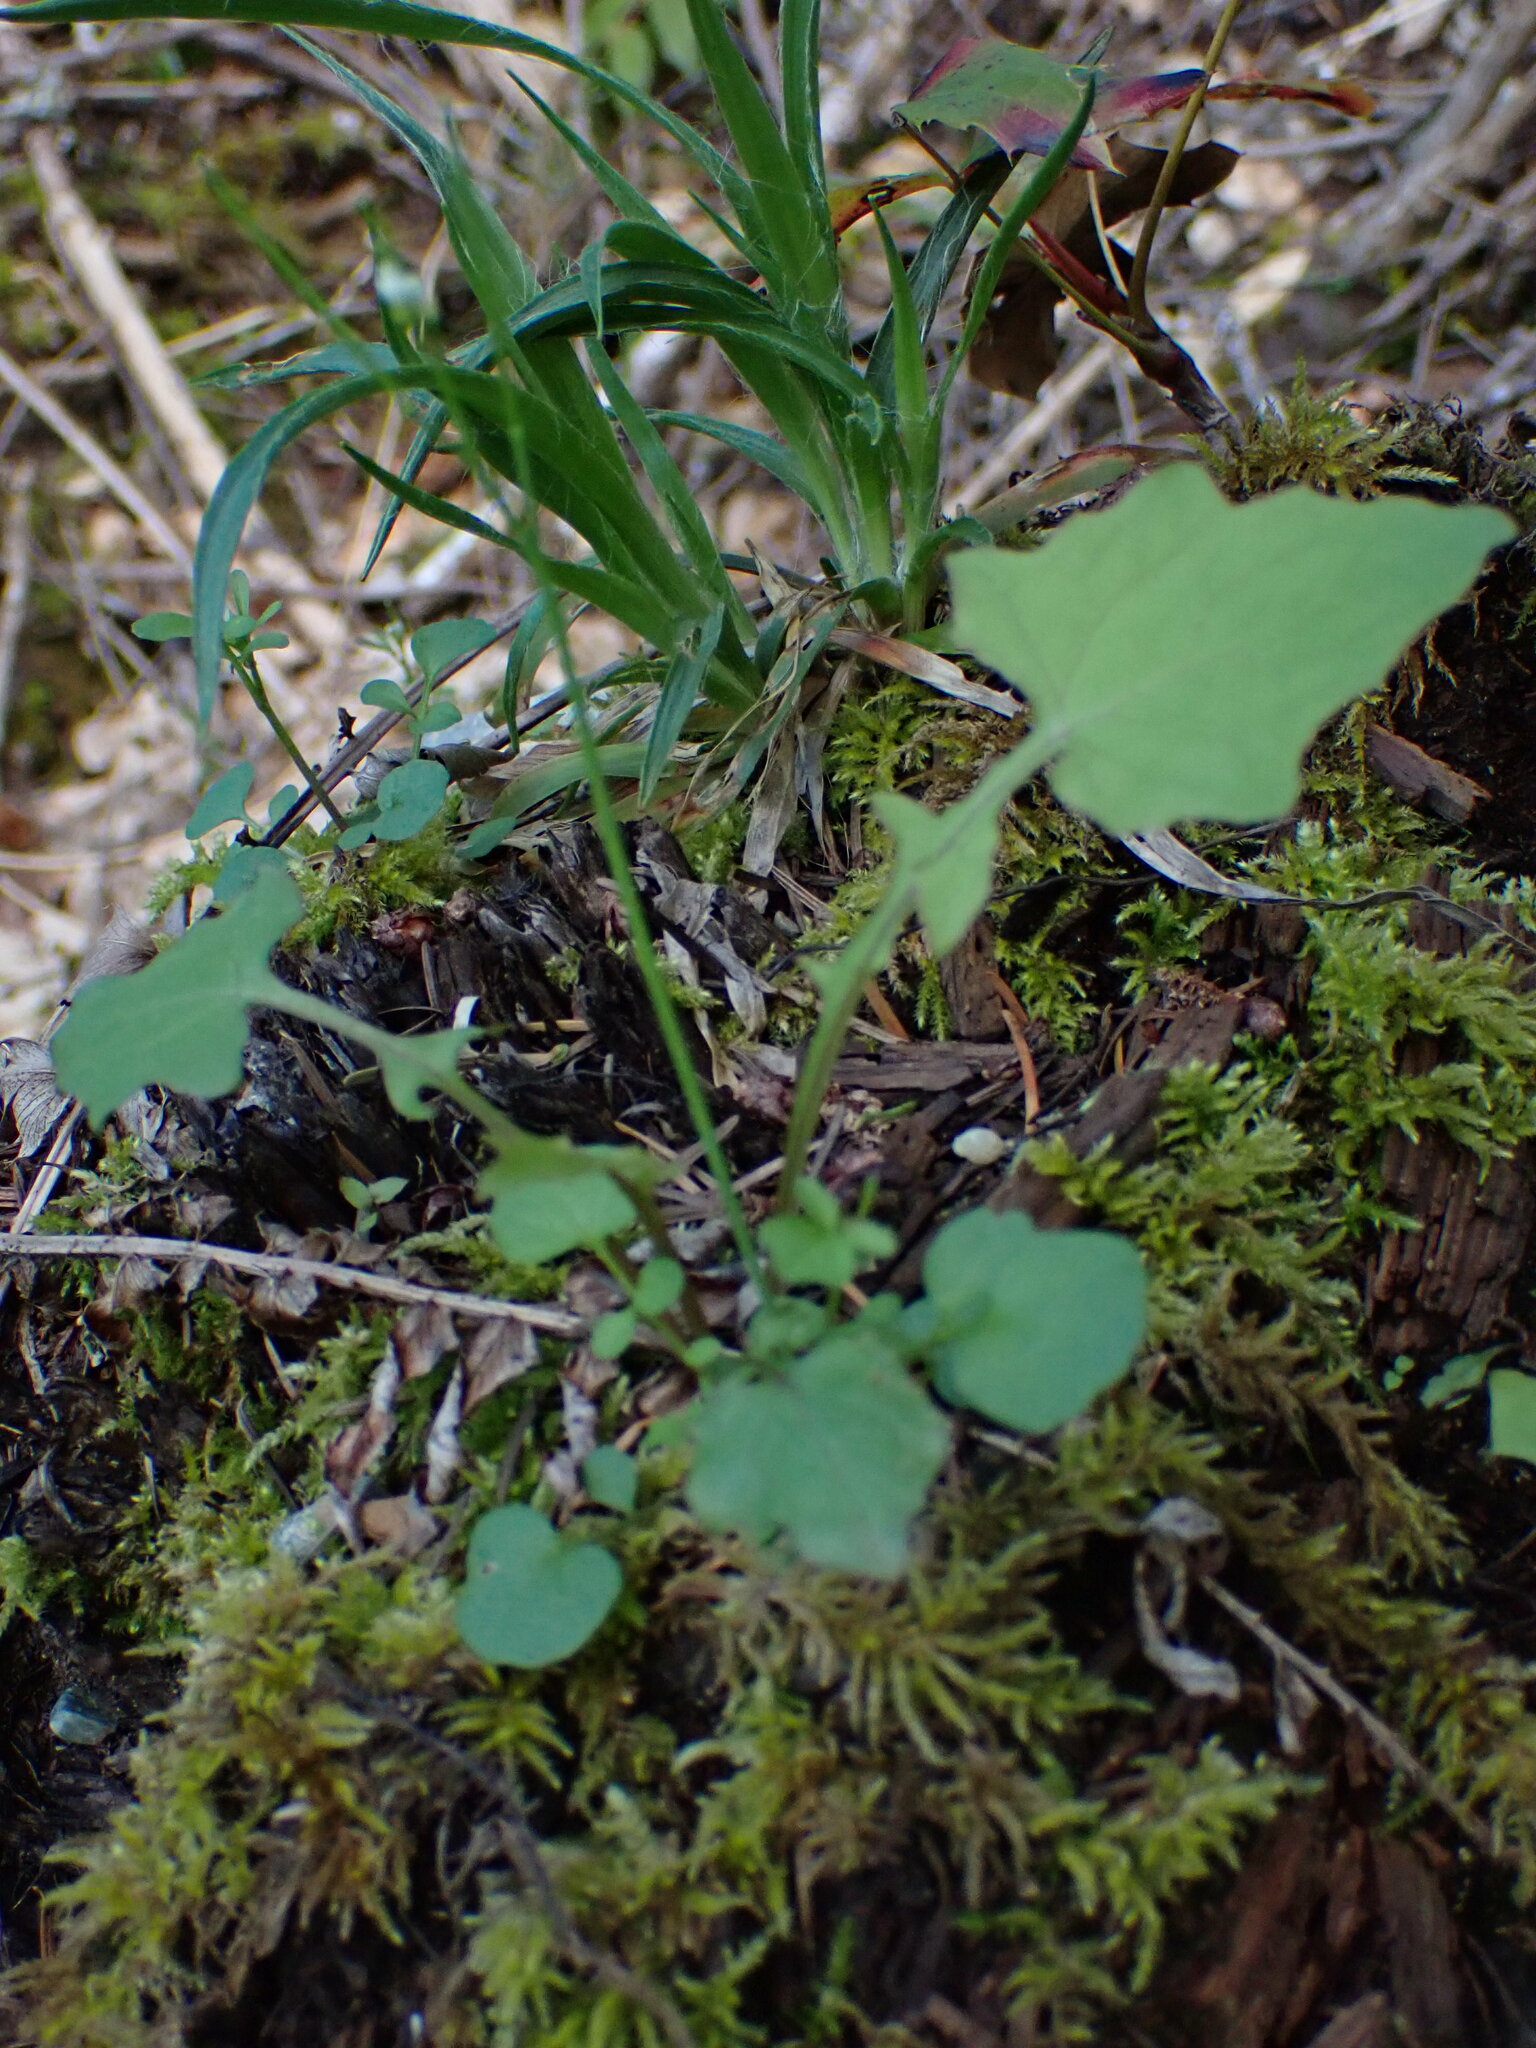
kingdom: Plantae
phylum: Tracheophyta
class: Magnoliopsida
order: Asterales
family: Asteraceae
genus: Mycelis
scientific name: Mycelis muralis
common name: Wall lettuce
